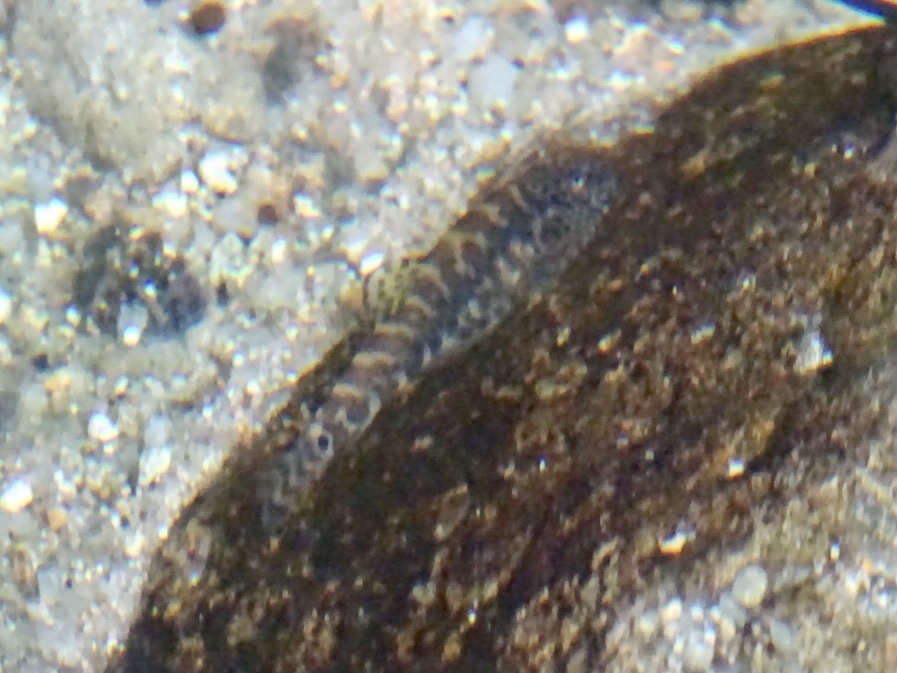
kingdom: Animalia
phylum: Chordata
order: Cypriniformes
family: Balitoridae
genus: Pseudogastromyzon
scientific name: Pseudogastromyzon myersi
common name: Sucker-belly loach
